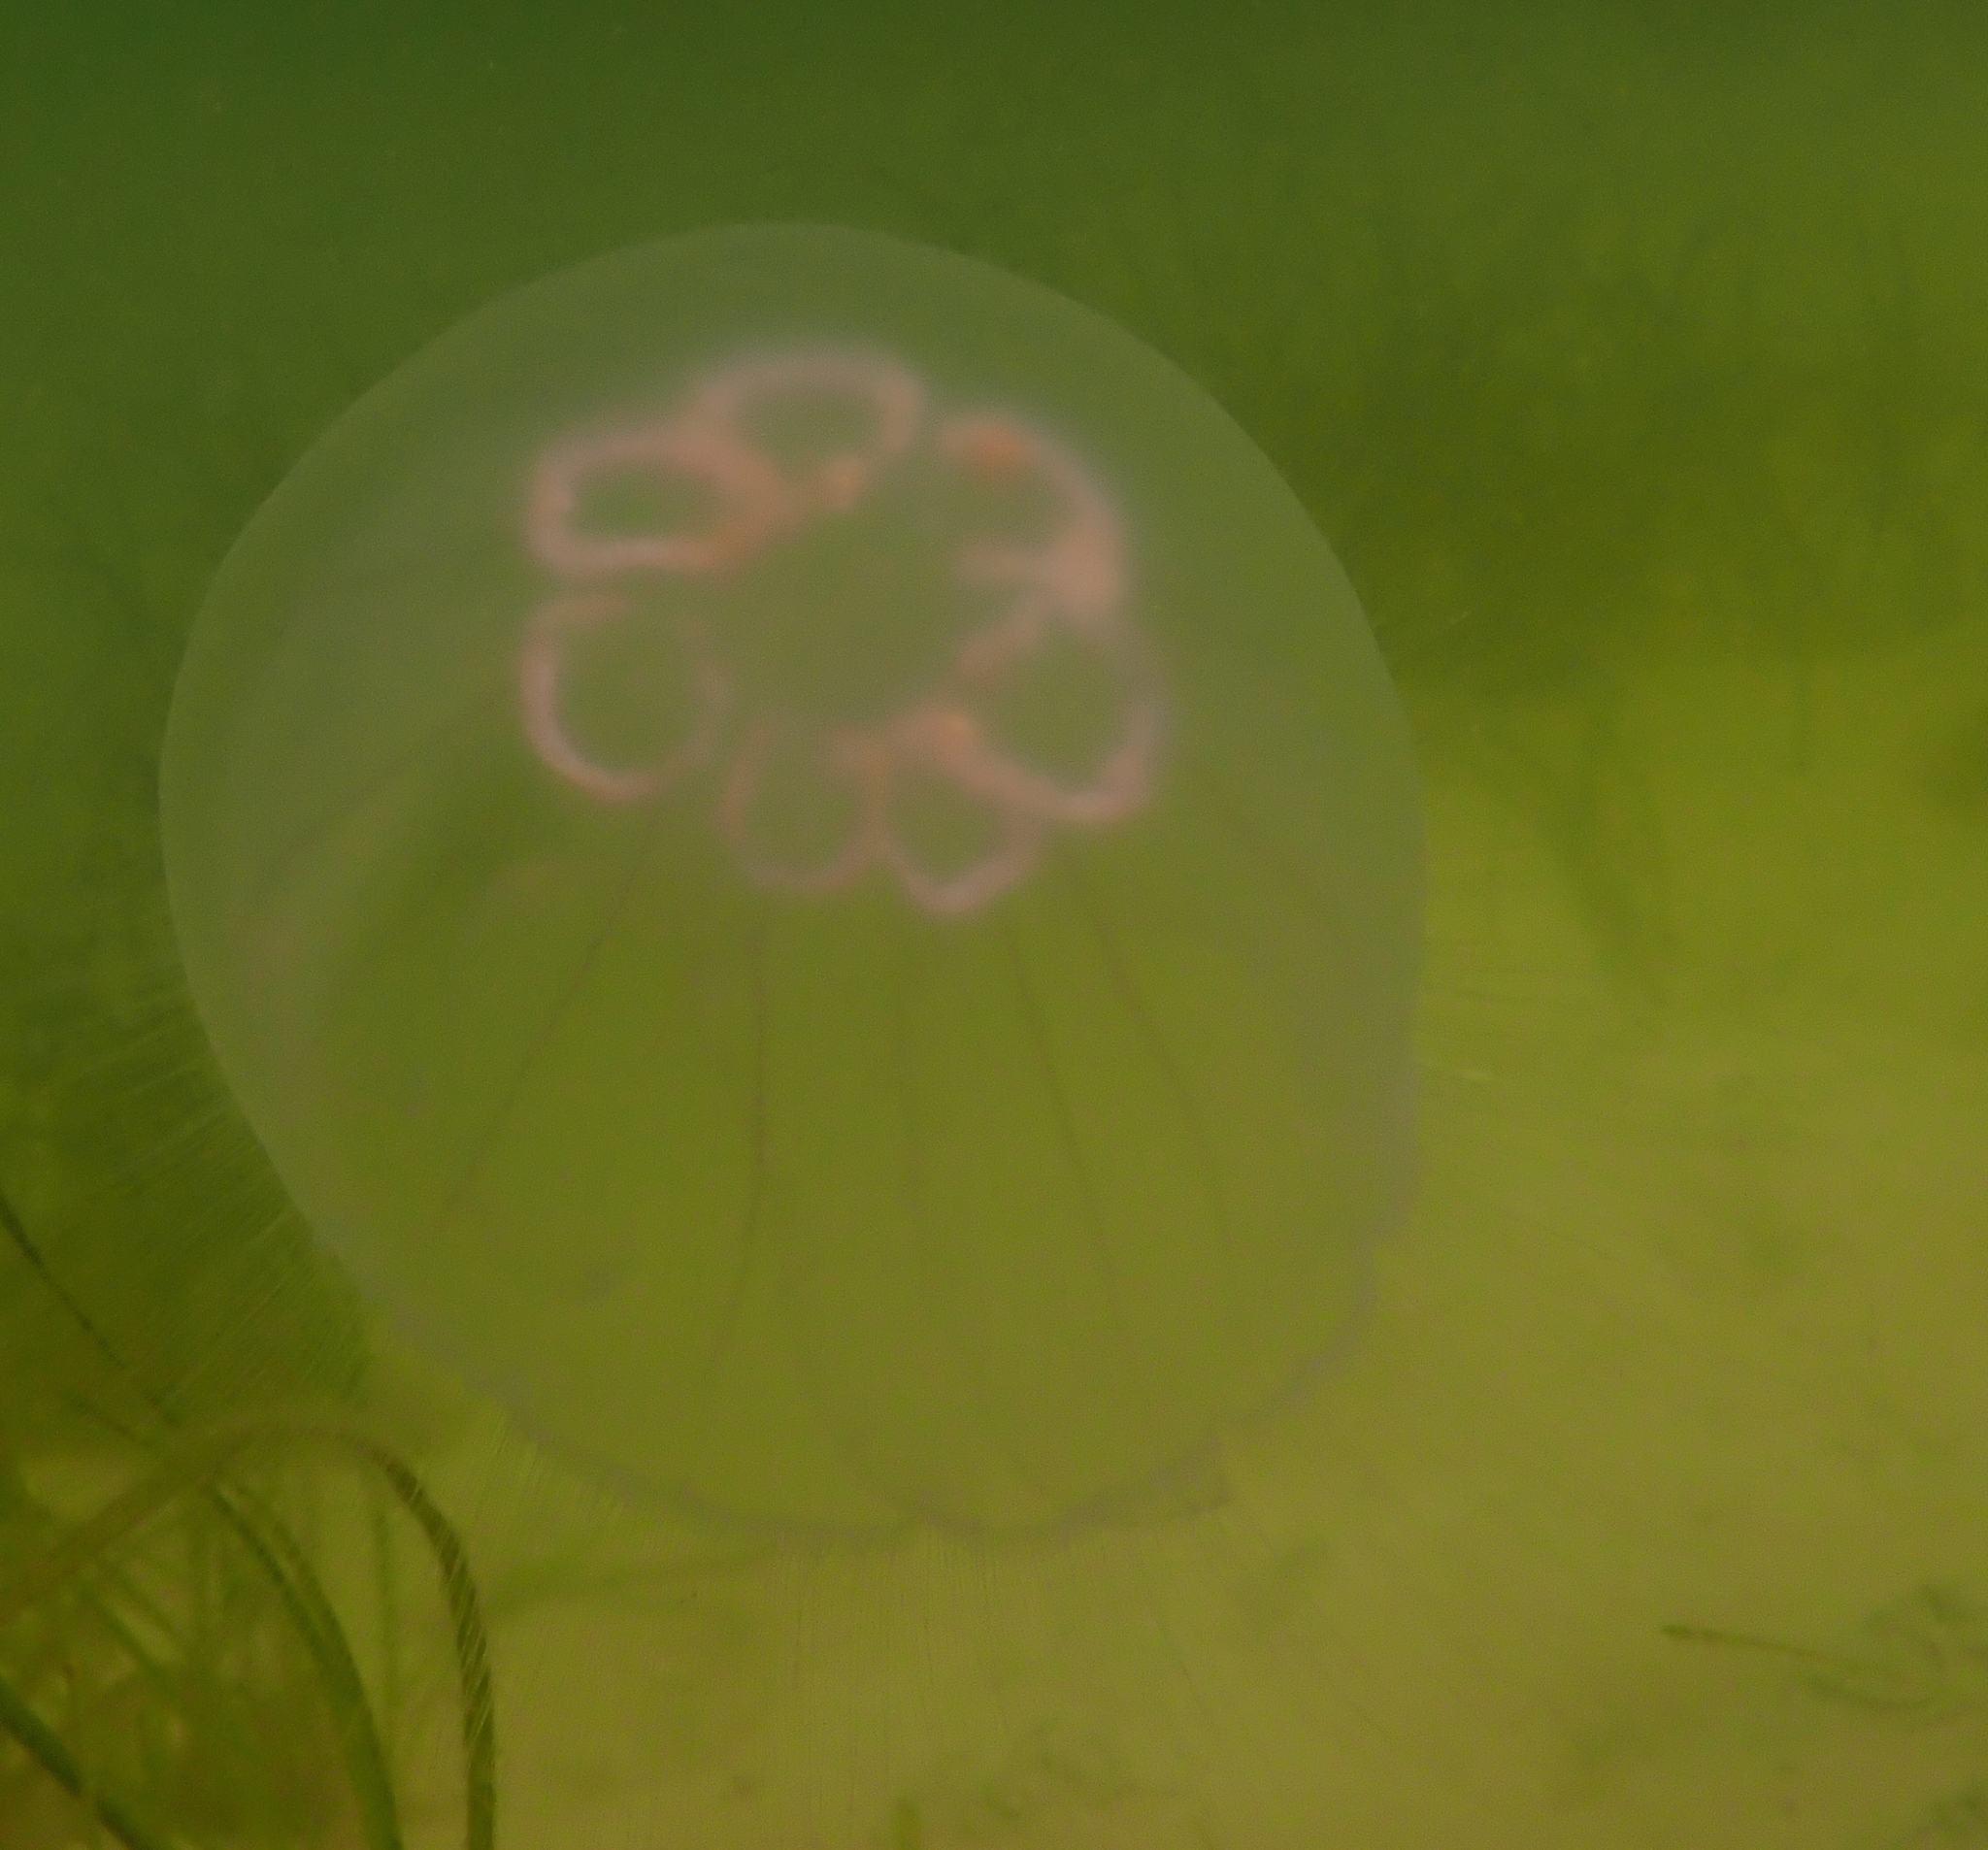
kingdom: Animalia
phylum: Cnidaria
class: Scyphozoa
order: Semaeostomeae
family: Ulmaridae
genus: Aurelia
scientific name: Aurelia aurita
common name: Moon jellyfish
